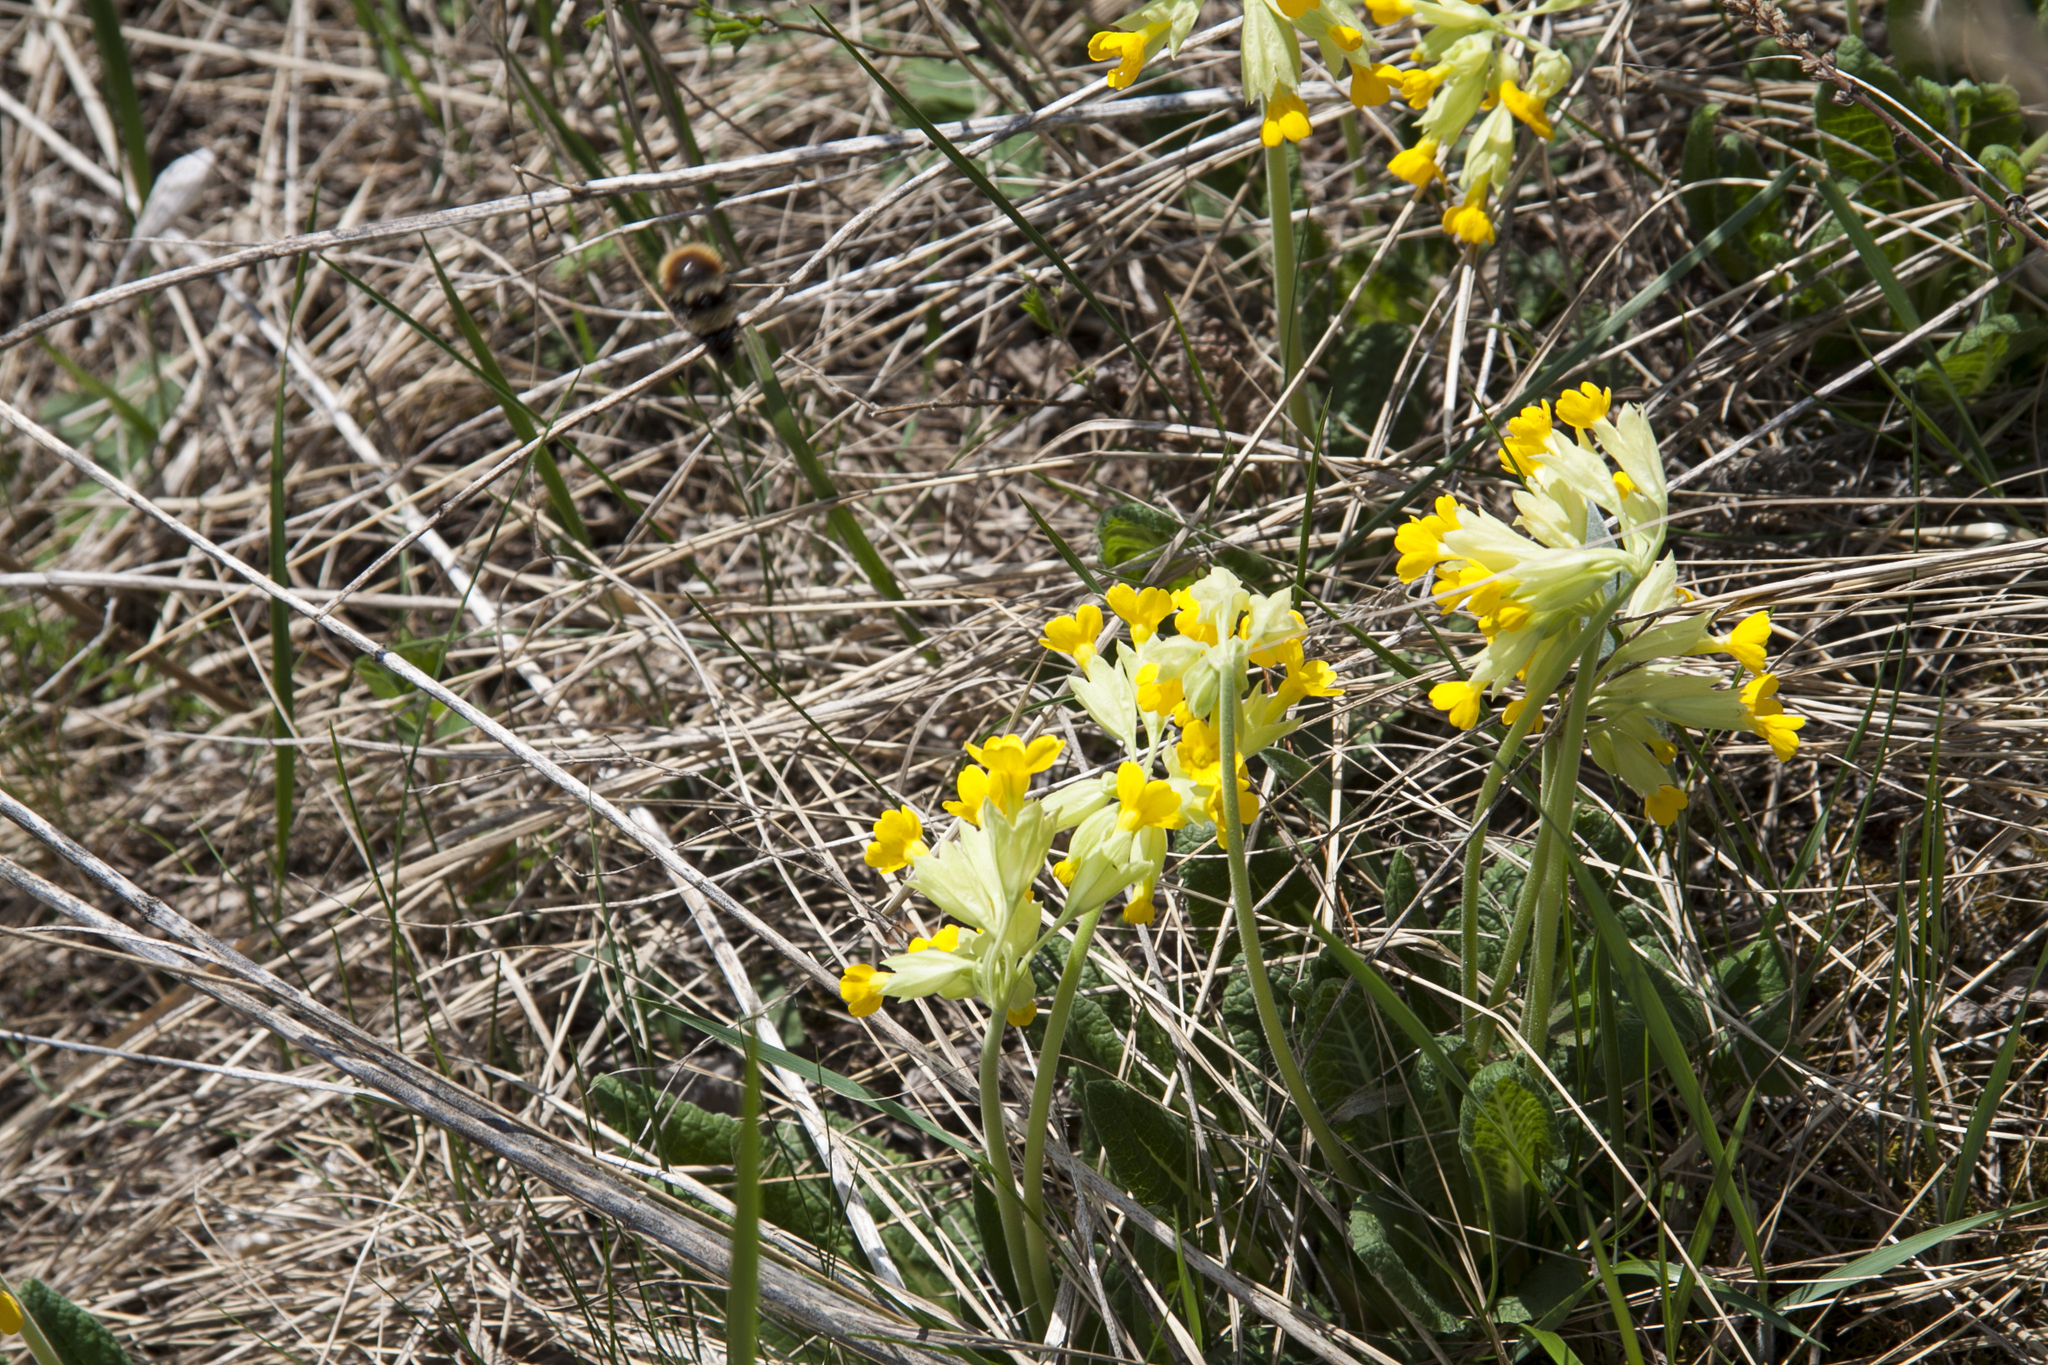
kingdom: Plantae
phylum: Tracheophyta
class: Magnoliopsida
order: Ericales
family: Primulaceae
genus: Primula
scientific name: Primula veris
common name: Cowslip
